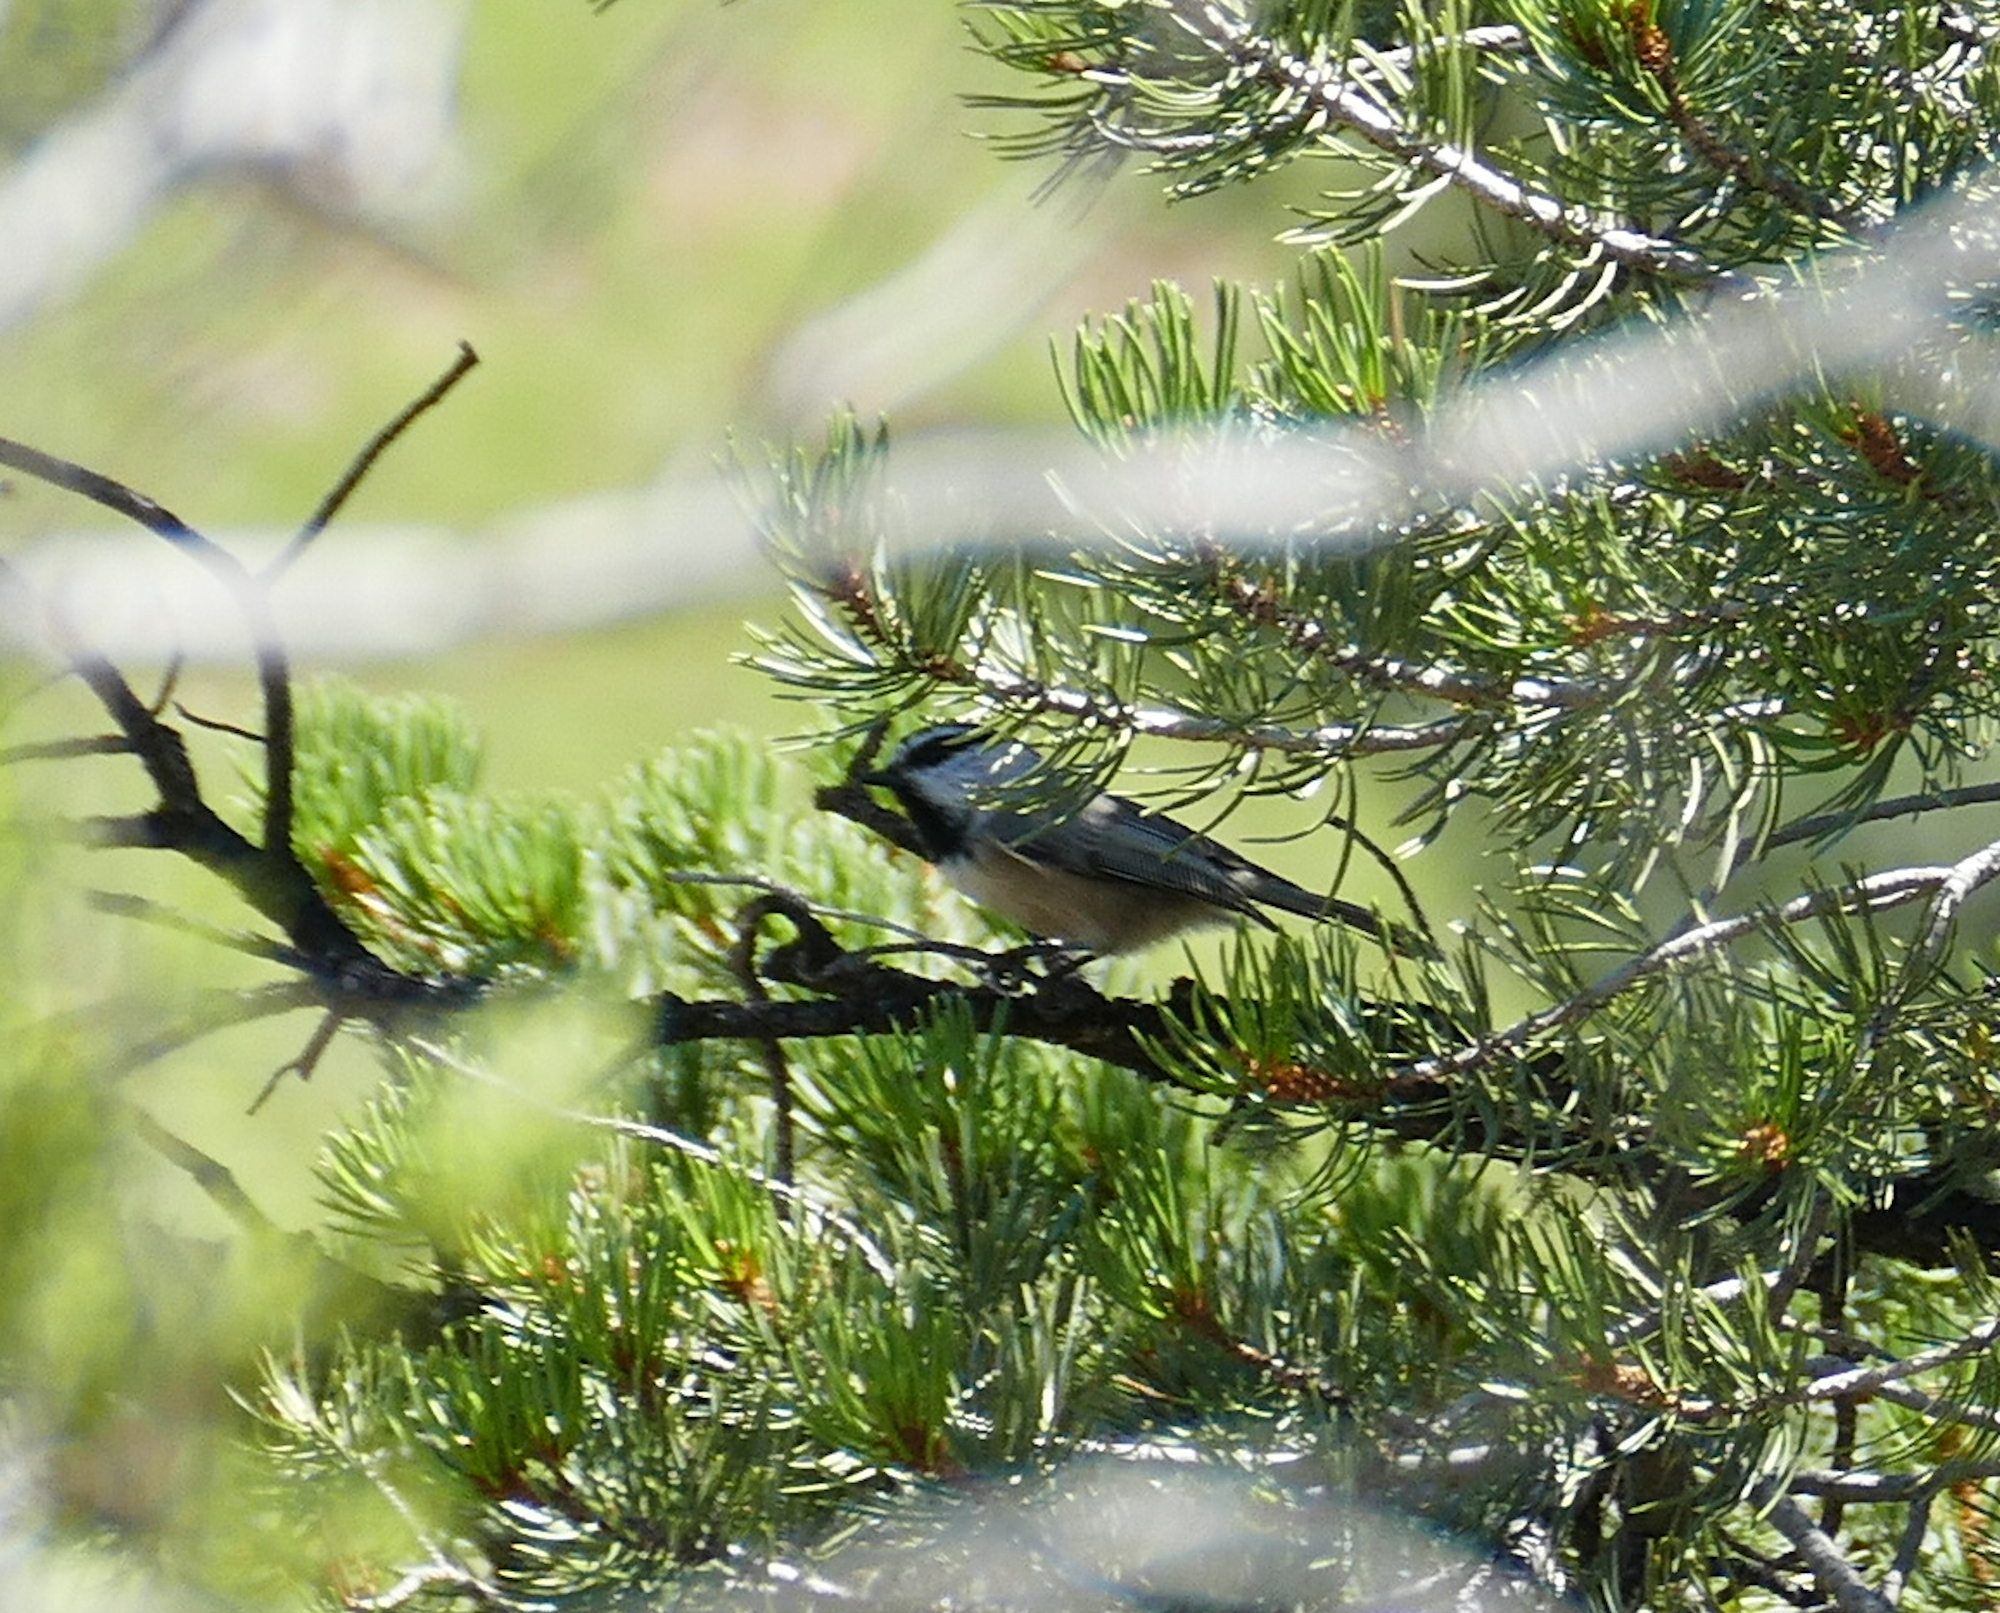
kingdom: Animalia
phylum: Chordata
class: Aves
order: Passeriformes
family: Paridae
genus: Poecile
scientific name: Poecile gambeli
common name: Mountain chickadee
